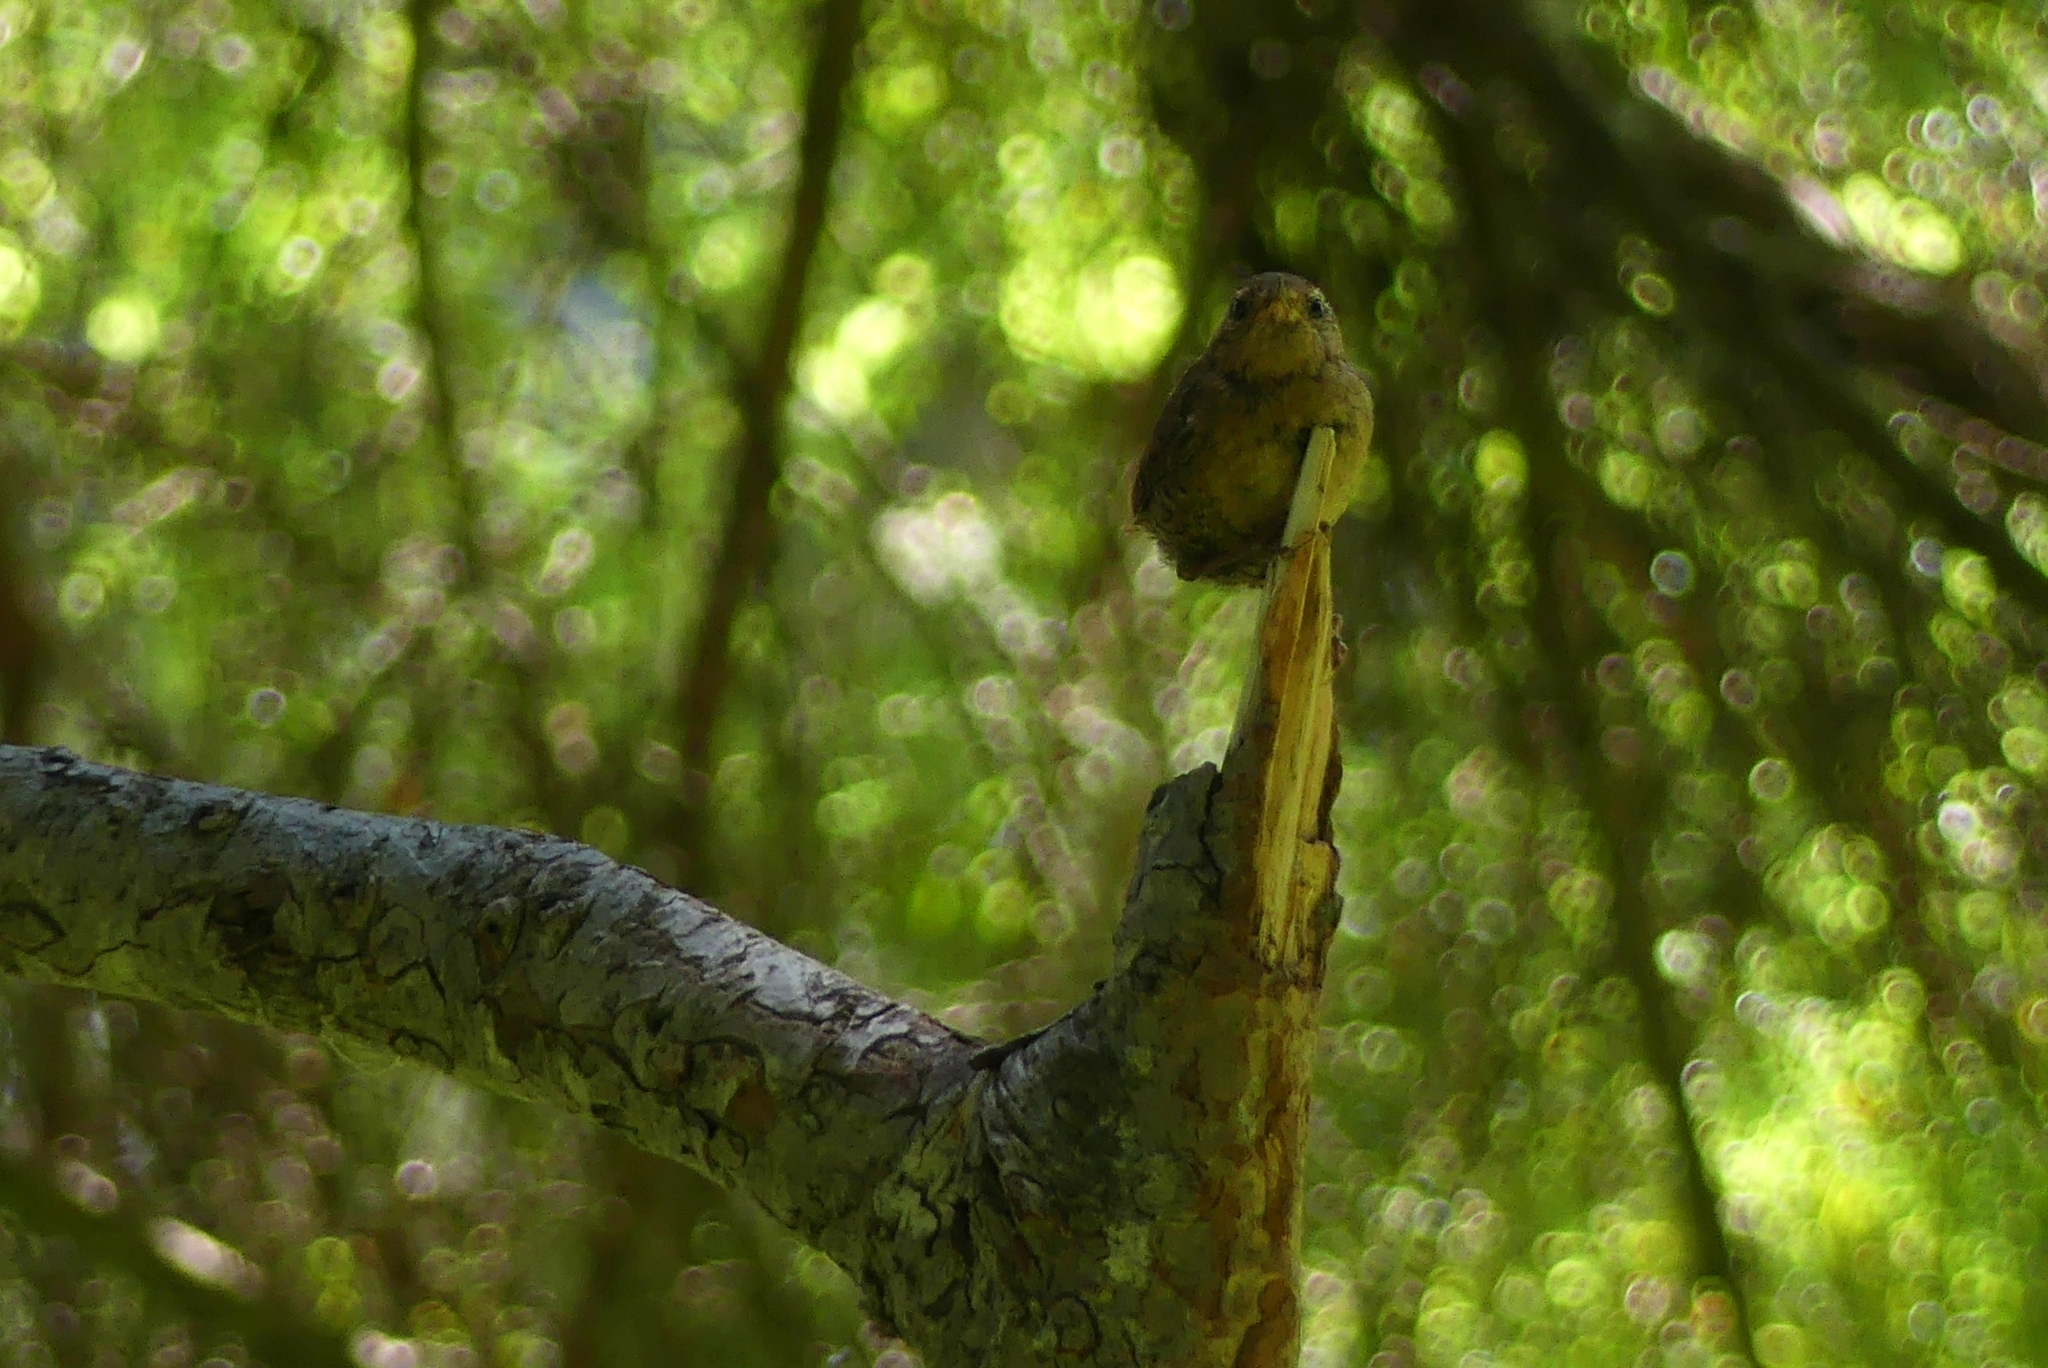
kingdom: Animalia
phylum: Chordata
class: Aves
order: Passeriformes
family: Troglodytidae
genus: Troglodytes
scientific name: Troglodytes pacificus
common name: Pacific wren
